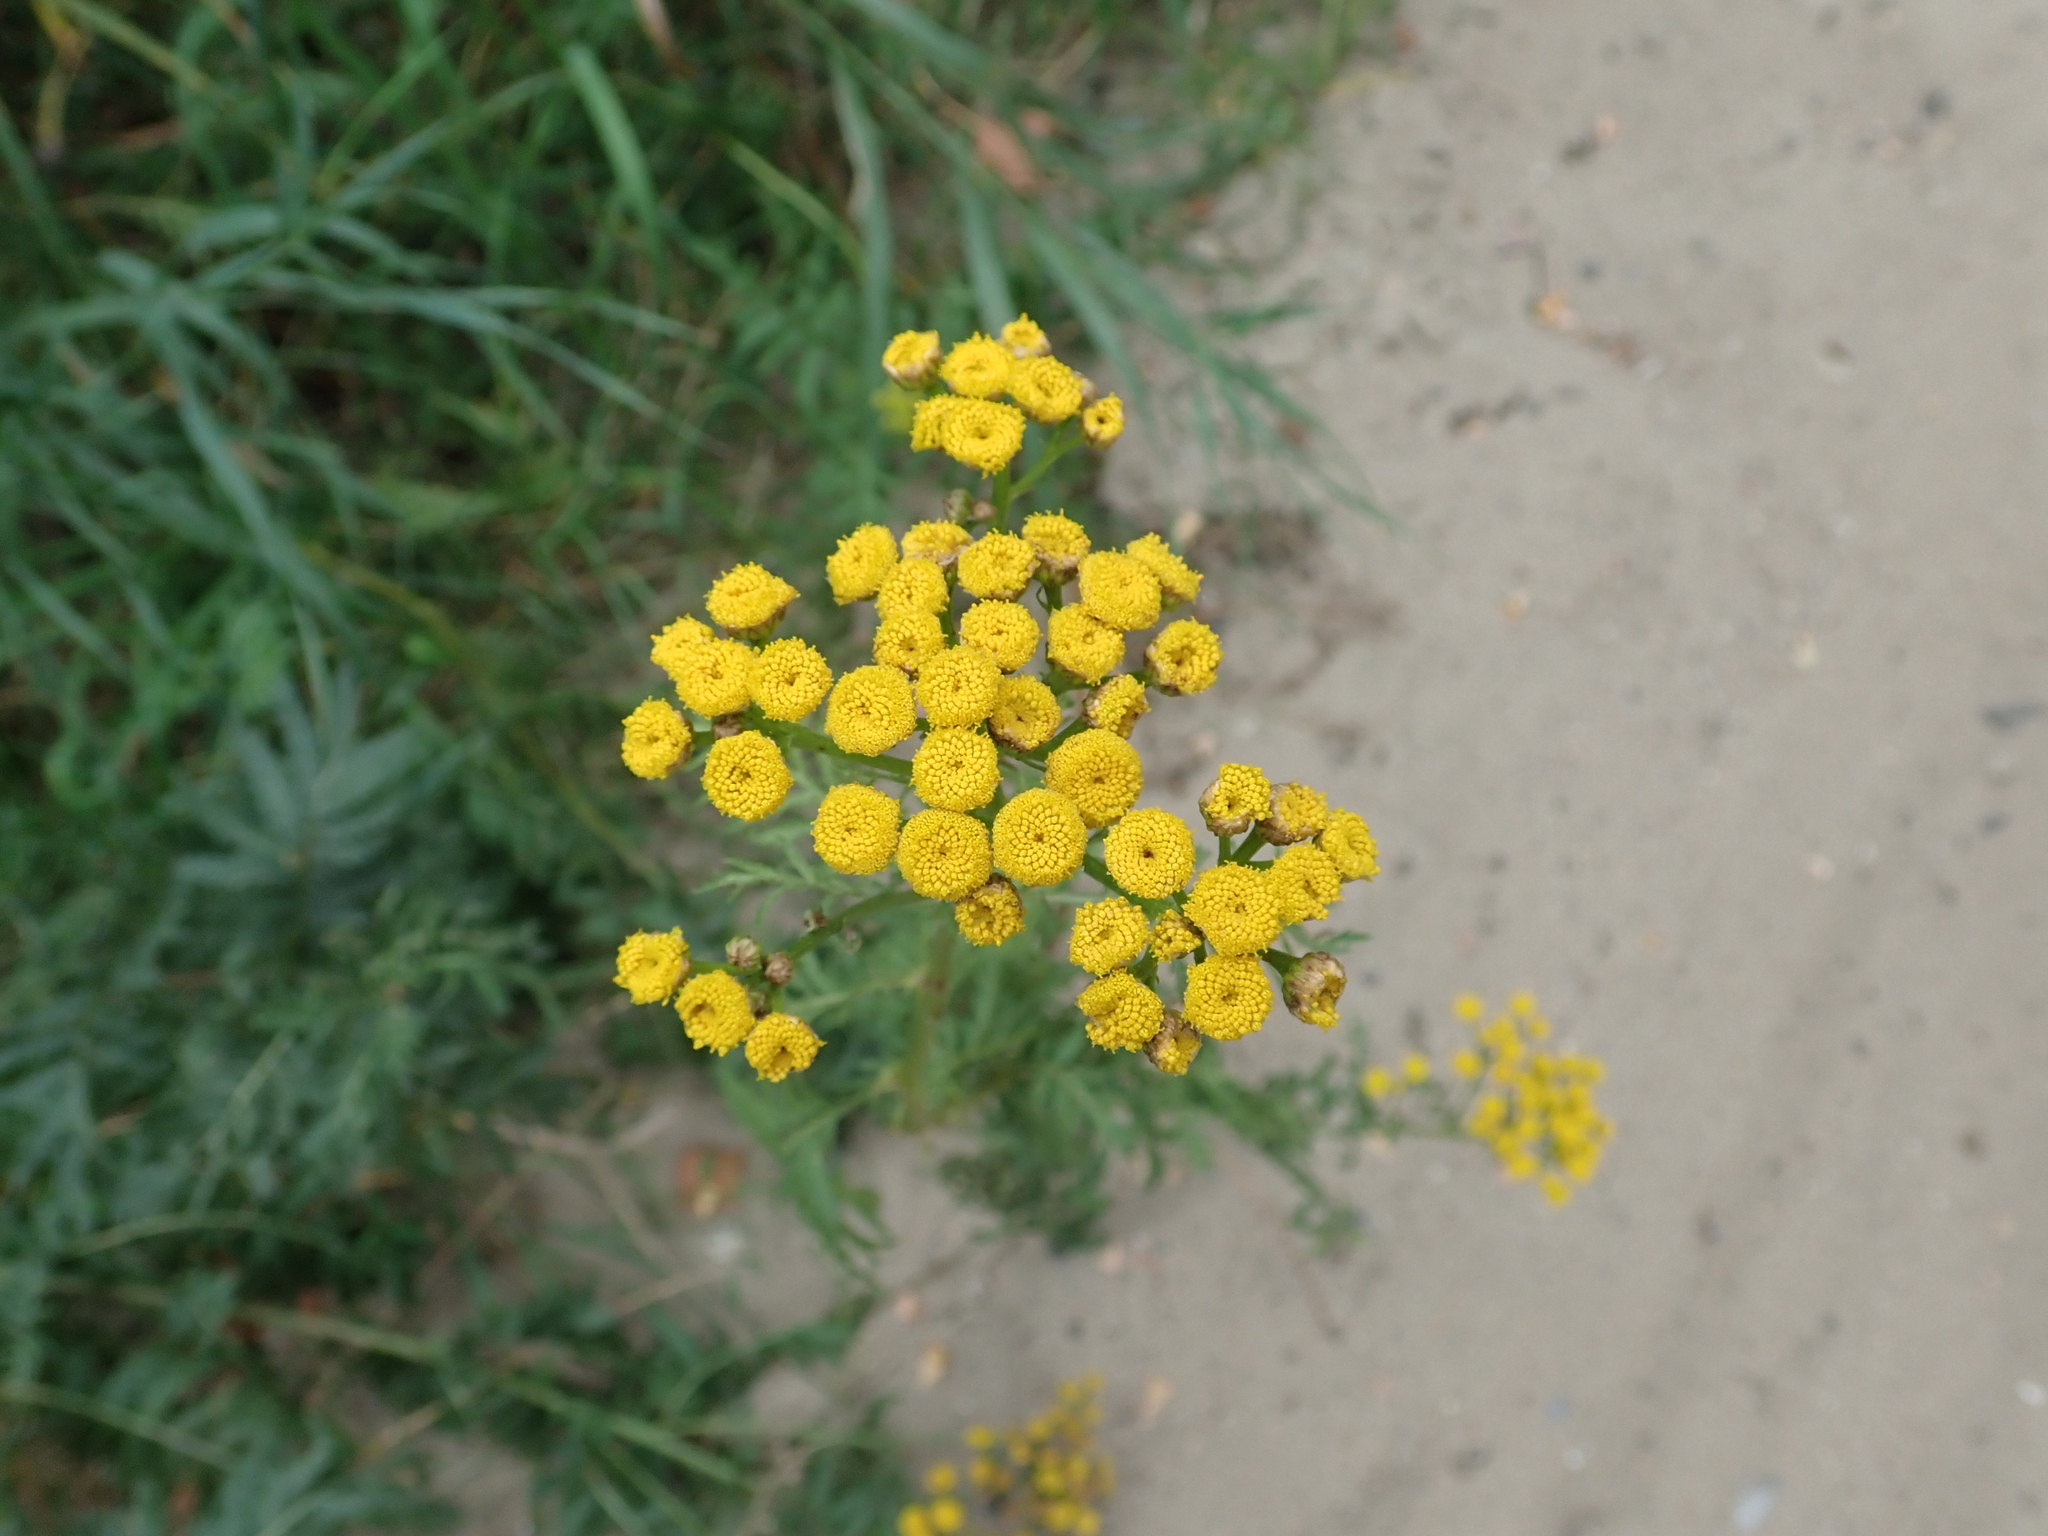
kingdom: Plantae
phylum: Tracheophyta
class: Magnoliopsida
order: Asterales
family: Asteraceae
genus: Tanacetum
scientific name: Tanacetum vulgare
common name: Common tansy
